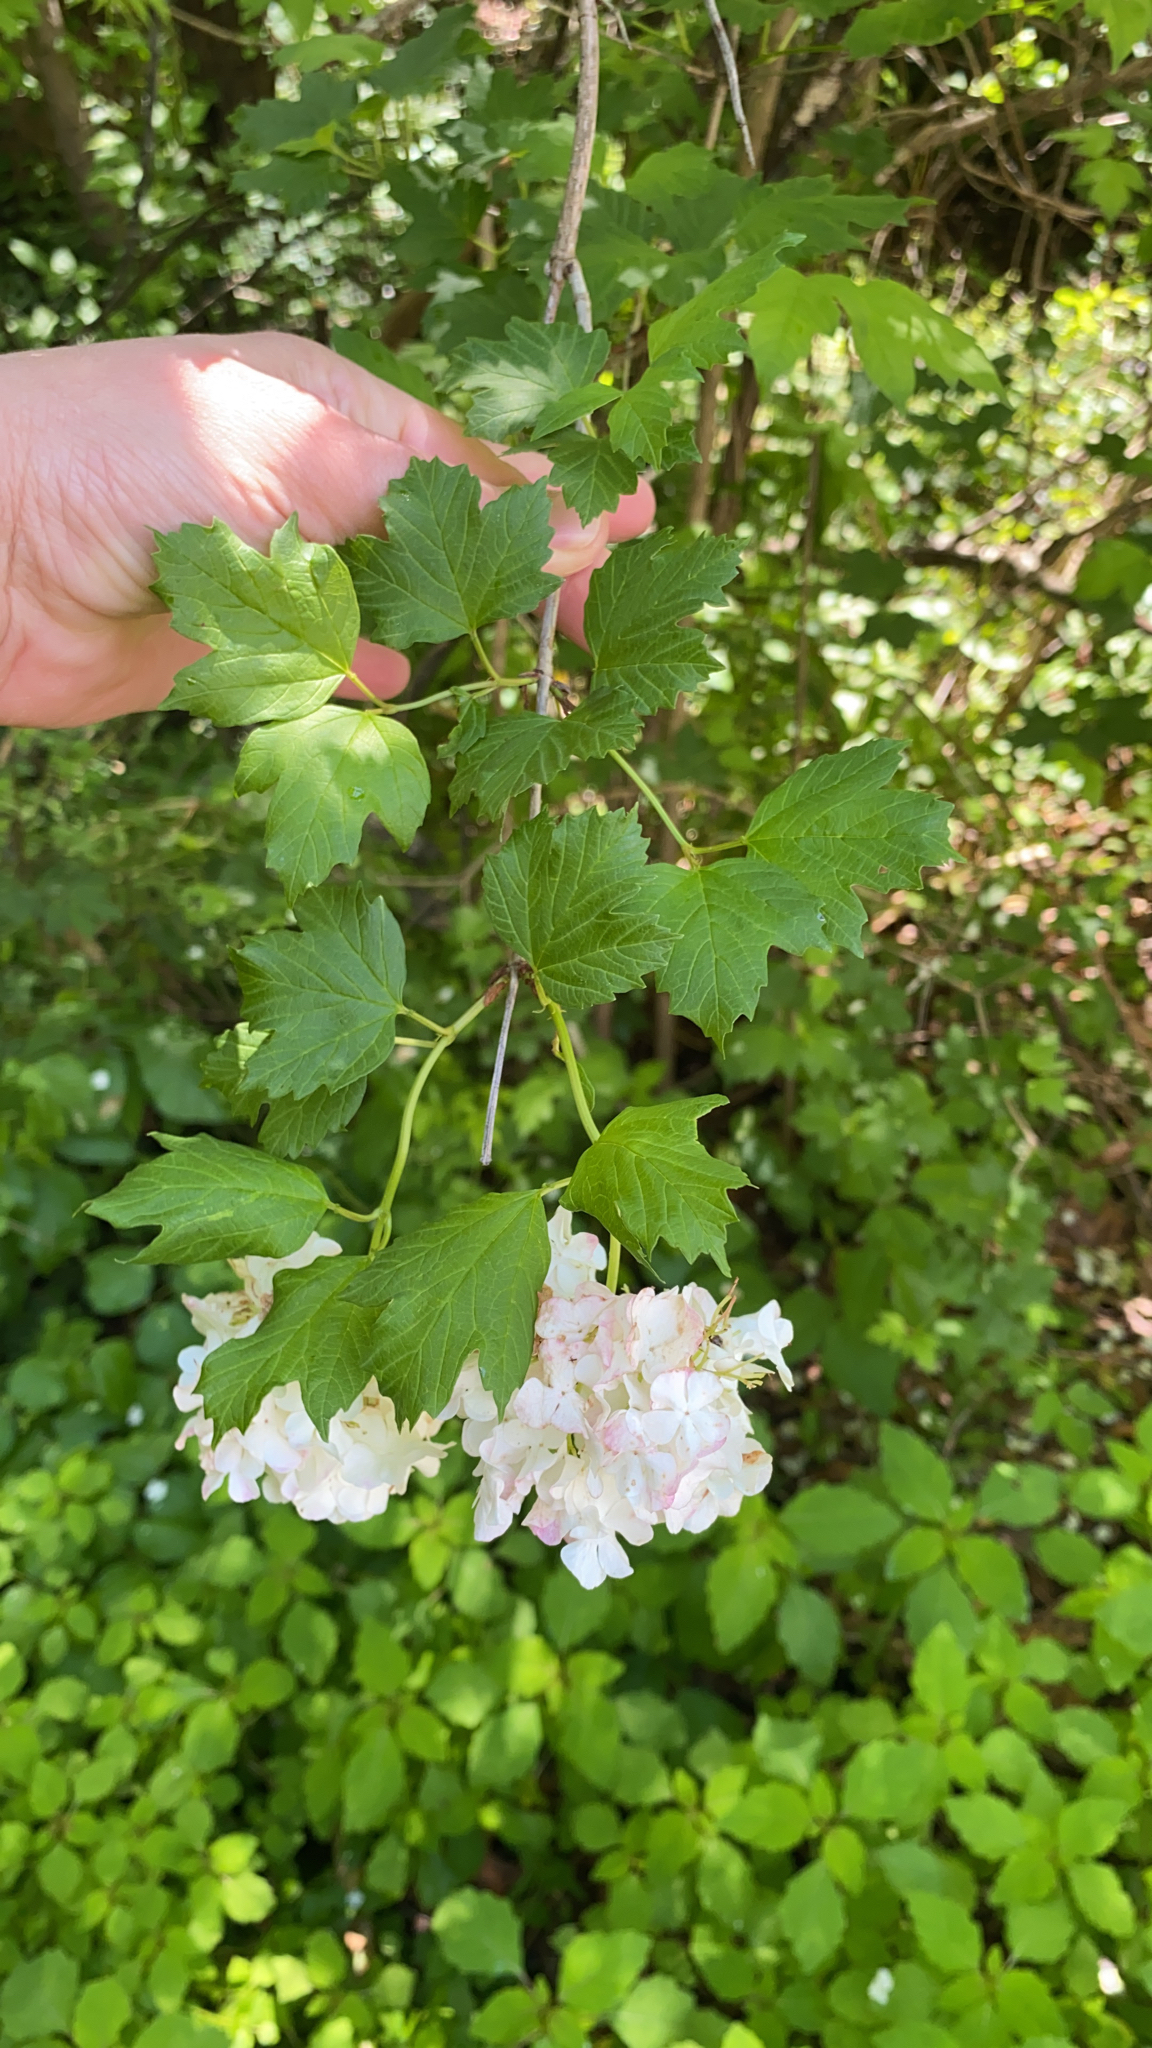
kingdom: Plantae
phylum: Tracheophyta
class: Magnoliopsida
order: Dipsacales
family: Viburnaceae
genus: Viburnum
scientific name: Viburnum opulus
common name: Guelder-rose
